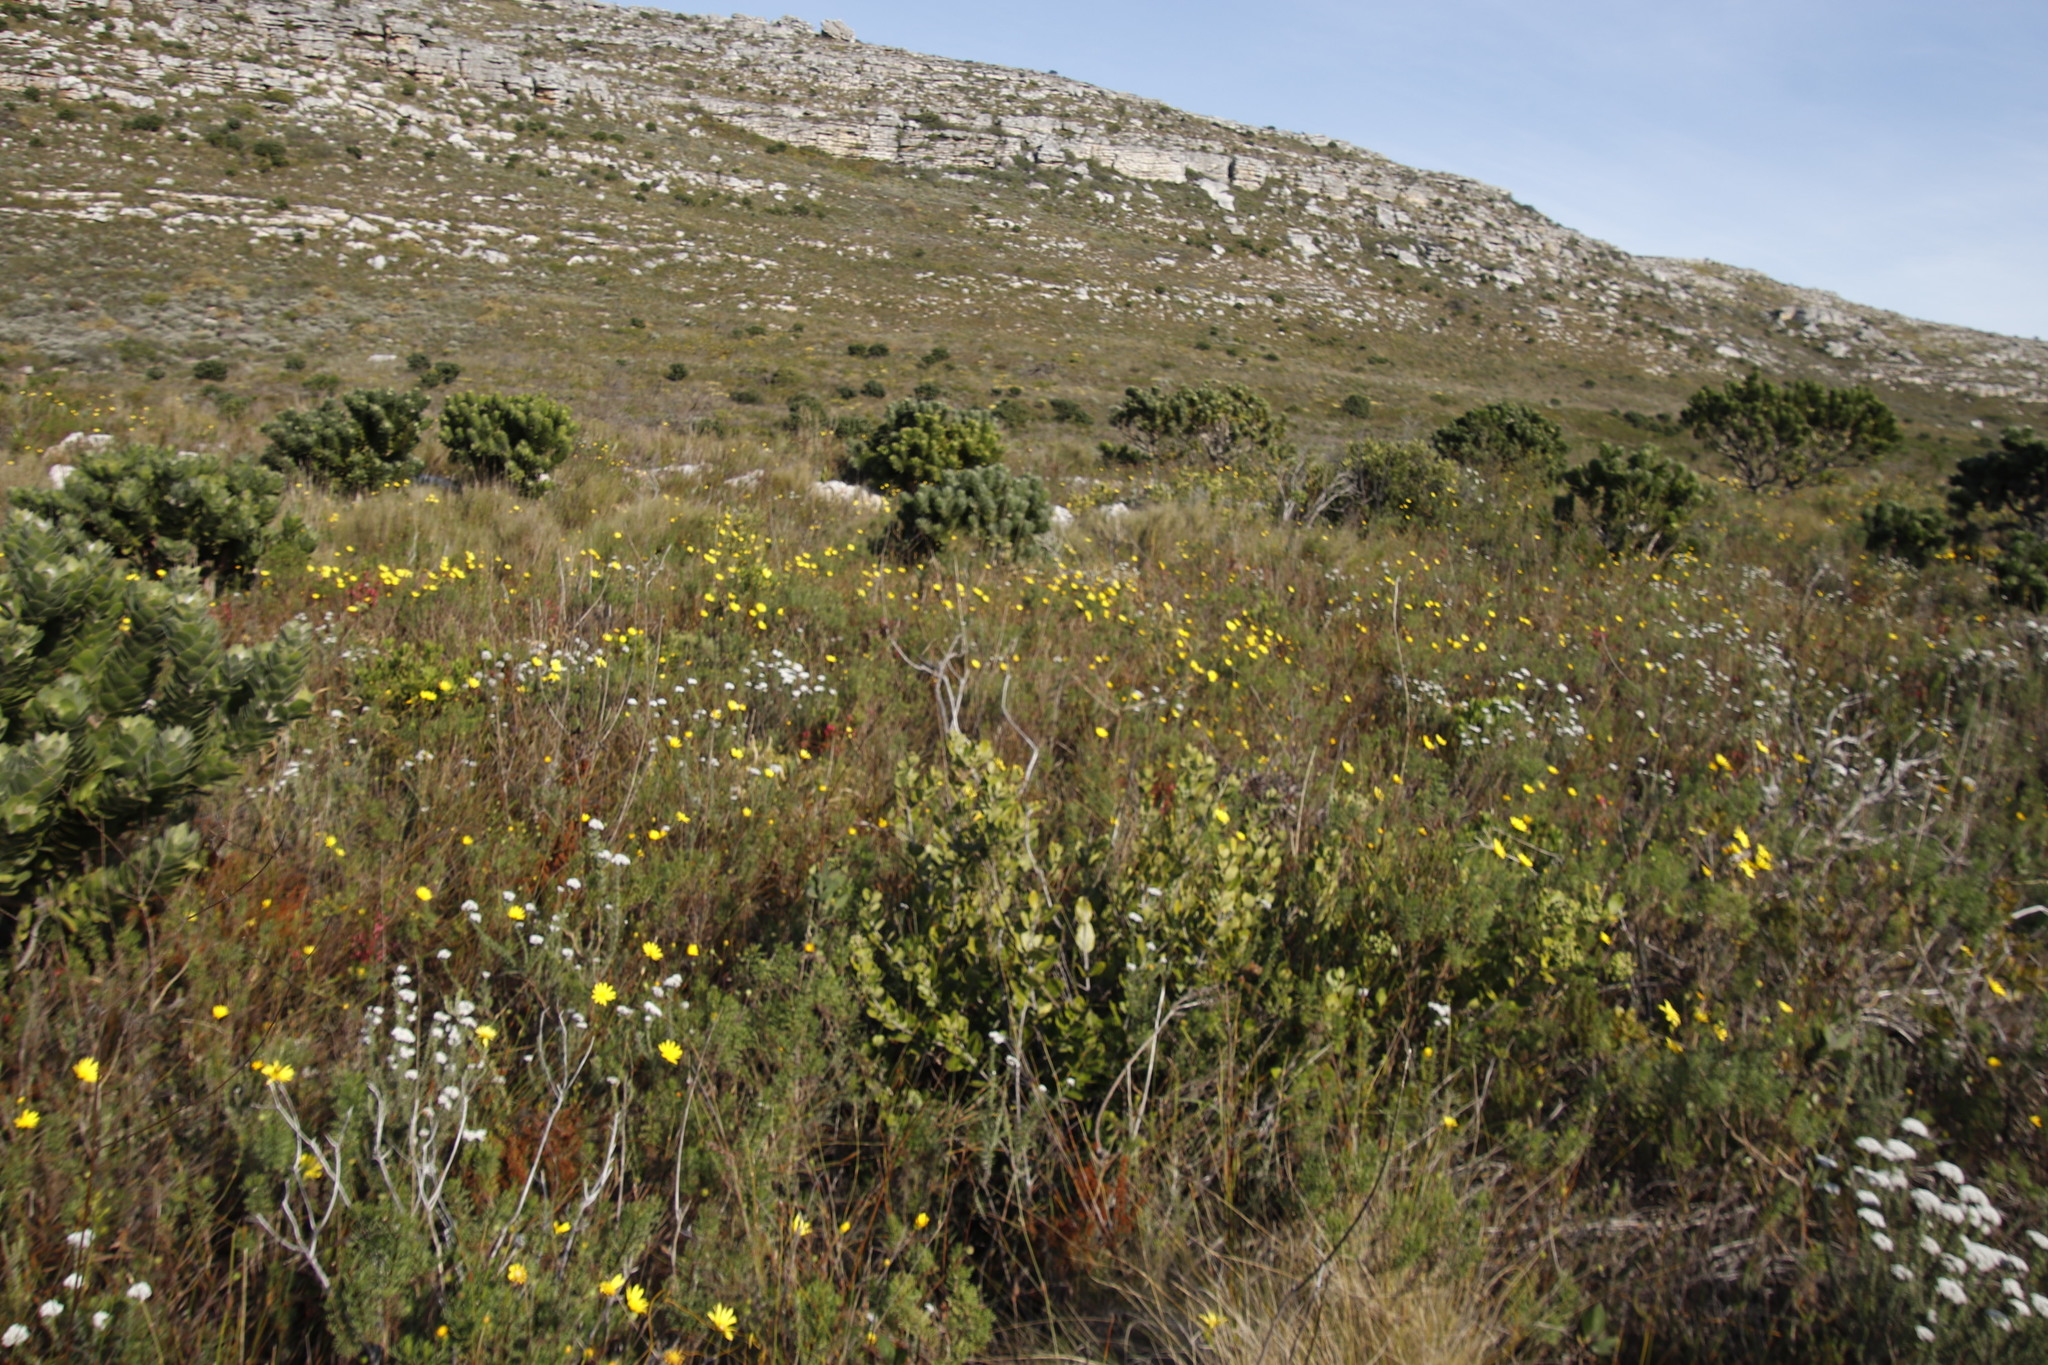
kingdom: Plantae
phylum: Tracheophyta
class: Magnoliopsida
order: Asterales
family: Asteraceae
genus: Euryops
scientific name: Euryops abrotanifolius
